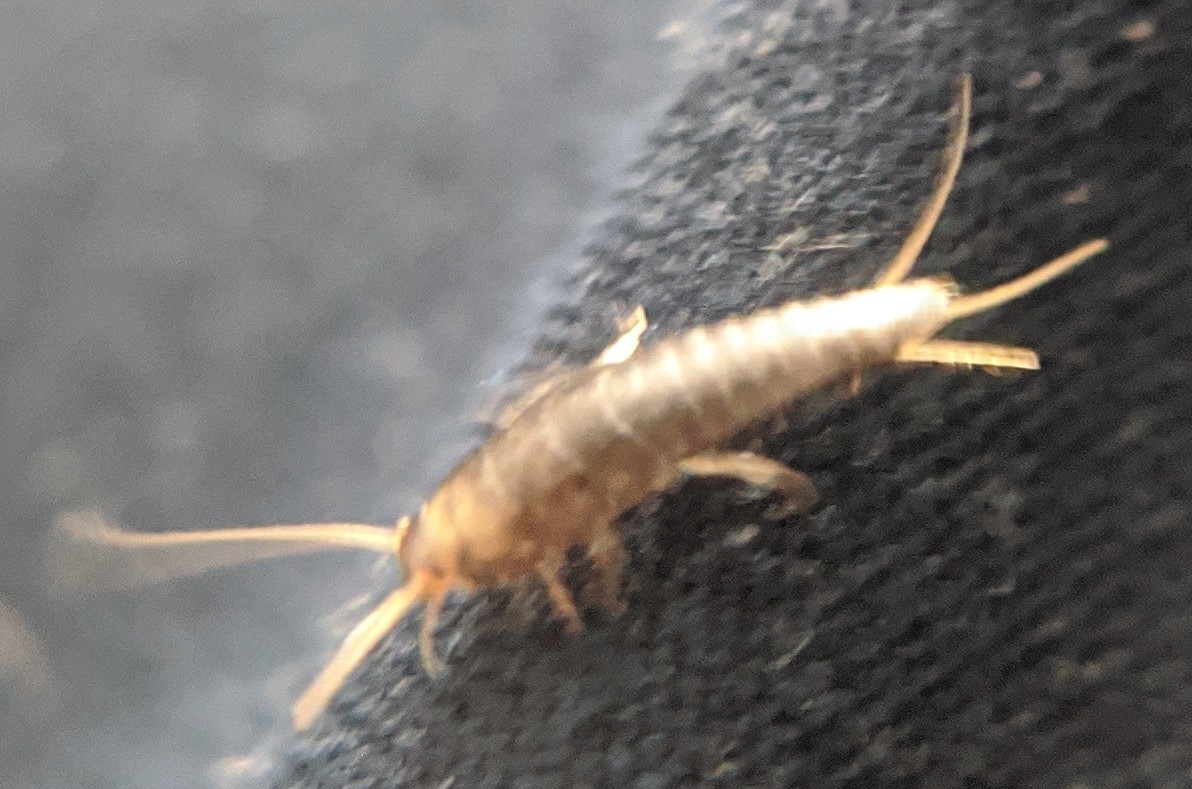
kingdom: Animalia
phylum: Arthropoda
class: Insecta
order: Zygentoma
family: Lepismatidae
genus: Lepisma
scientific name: Lepisma saccharinum
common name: Silverfish
